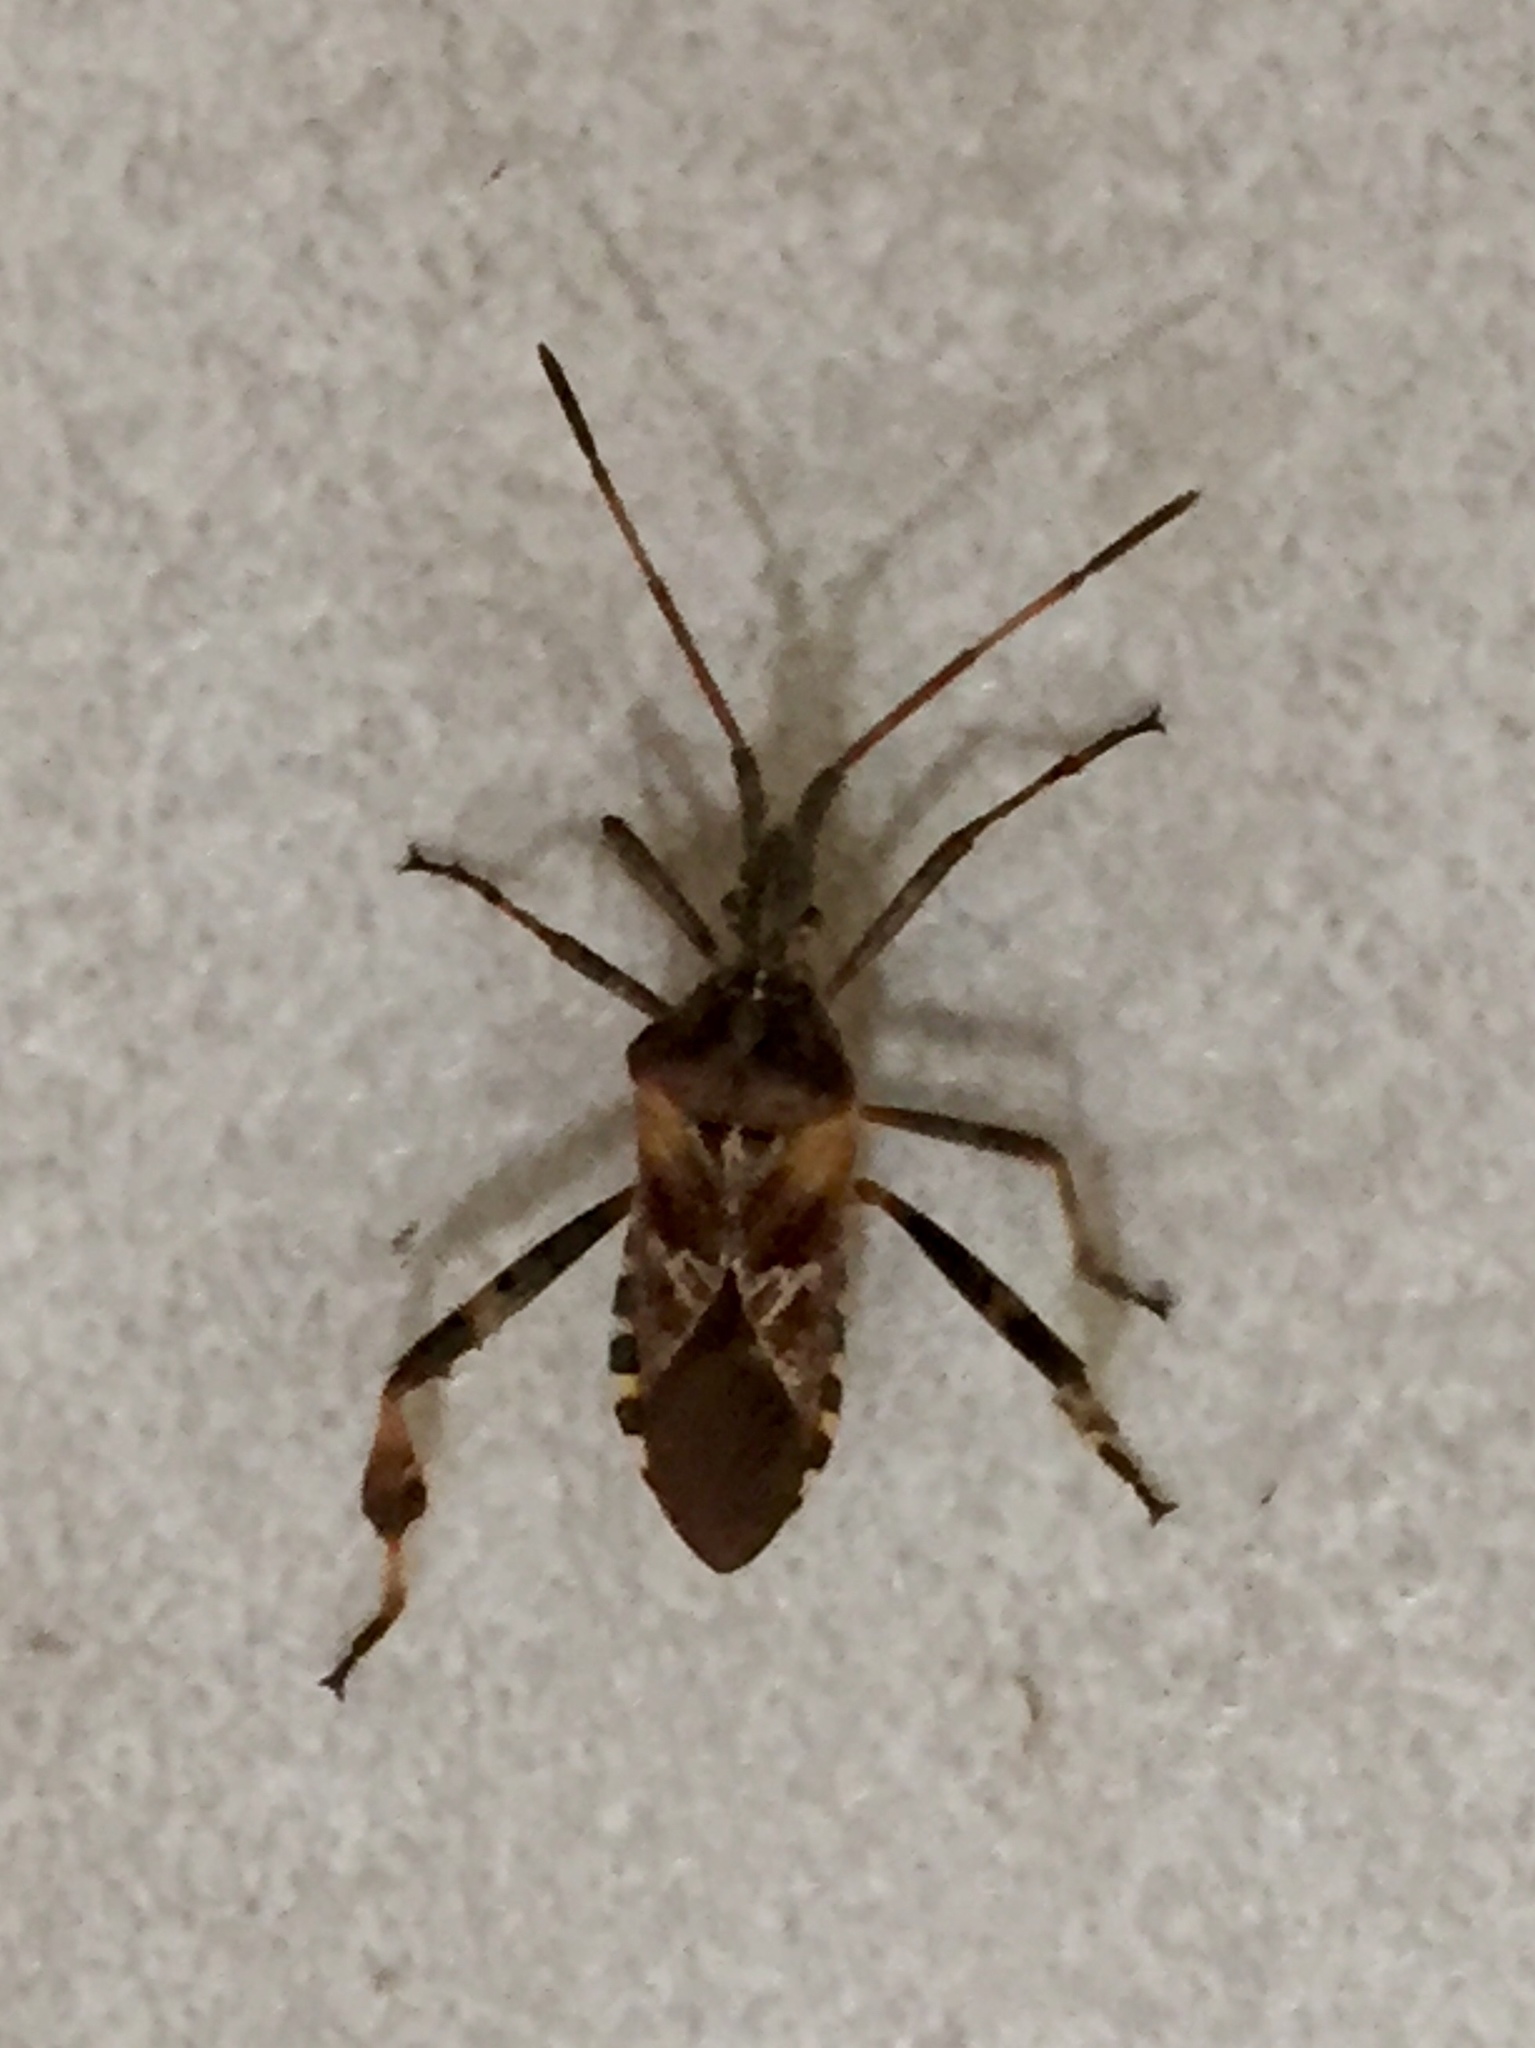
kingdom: Animalia
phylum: Arthropoda
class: Insecta
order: Hemiptera
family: Coreidae
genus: Leptoglossus
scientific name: Leptoglossus occidentalis
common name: Western conifer-seed bug
